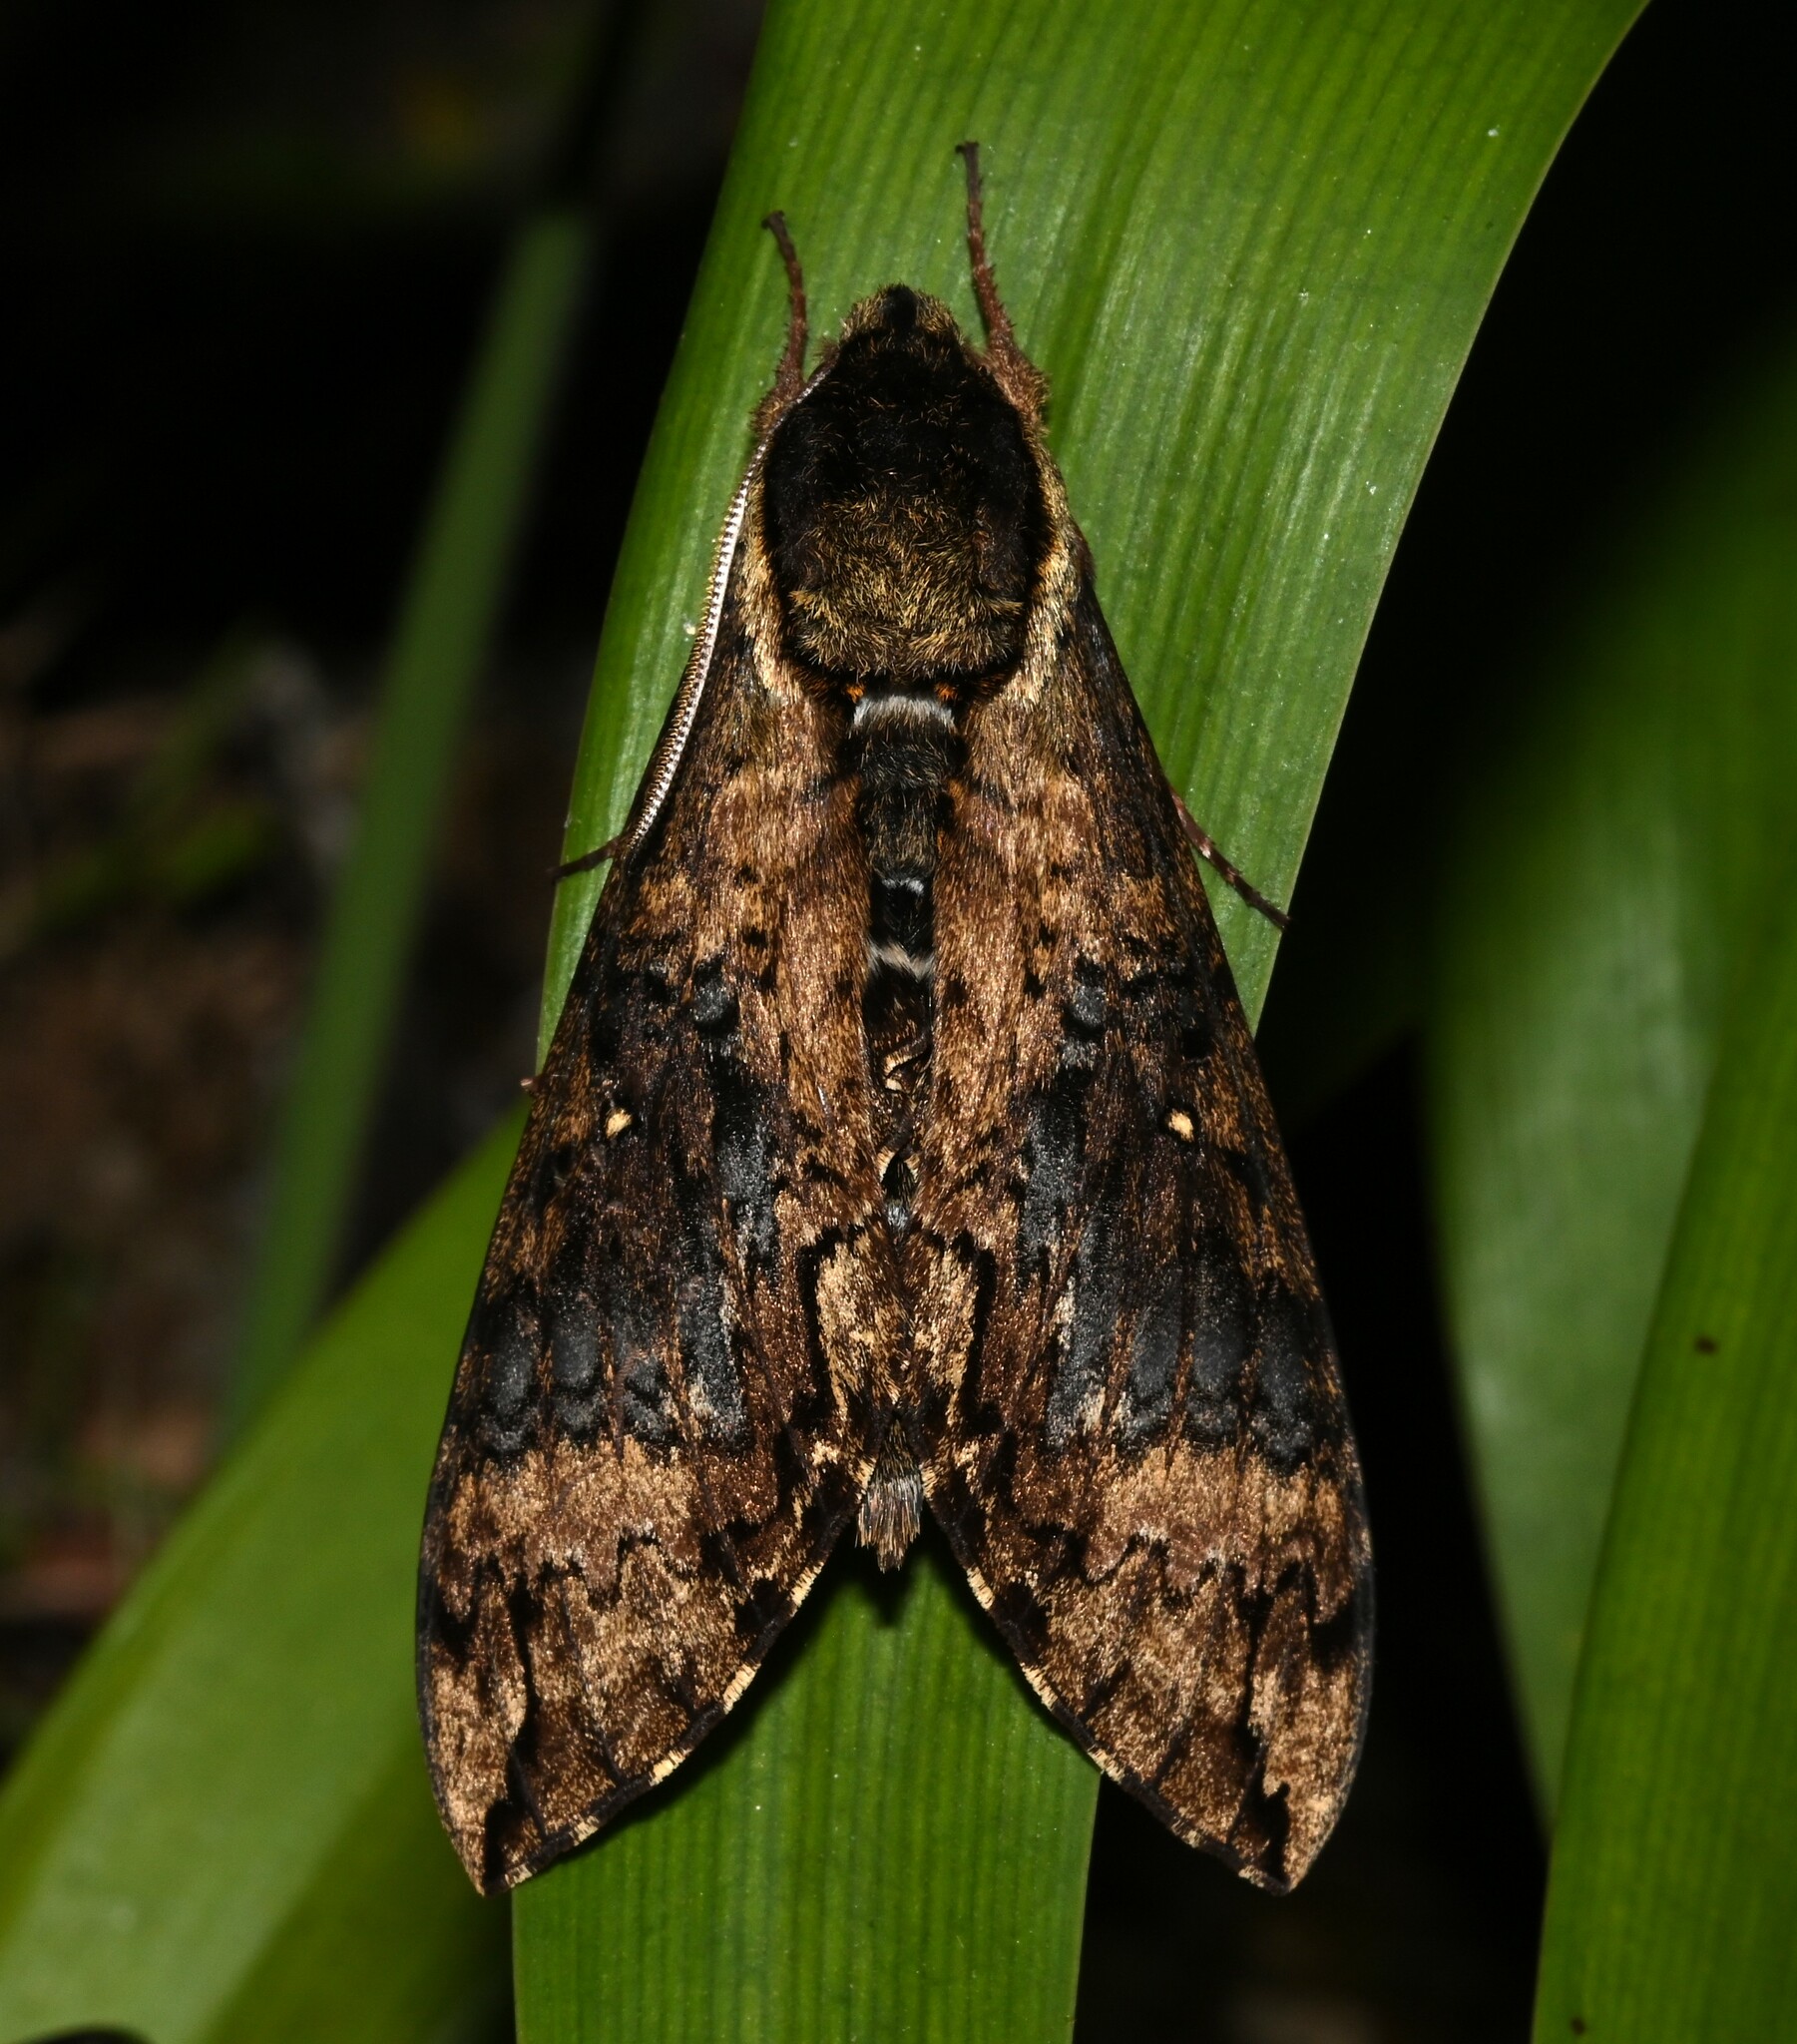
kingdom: Animalia
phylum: Arthropoda
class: Insecta
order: Lepidoptera
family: Sphingidae
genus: Manduca
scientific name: Manduca pellenia
